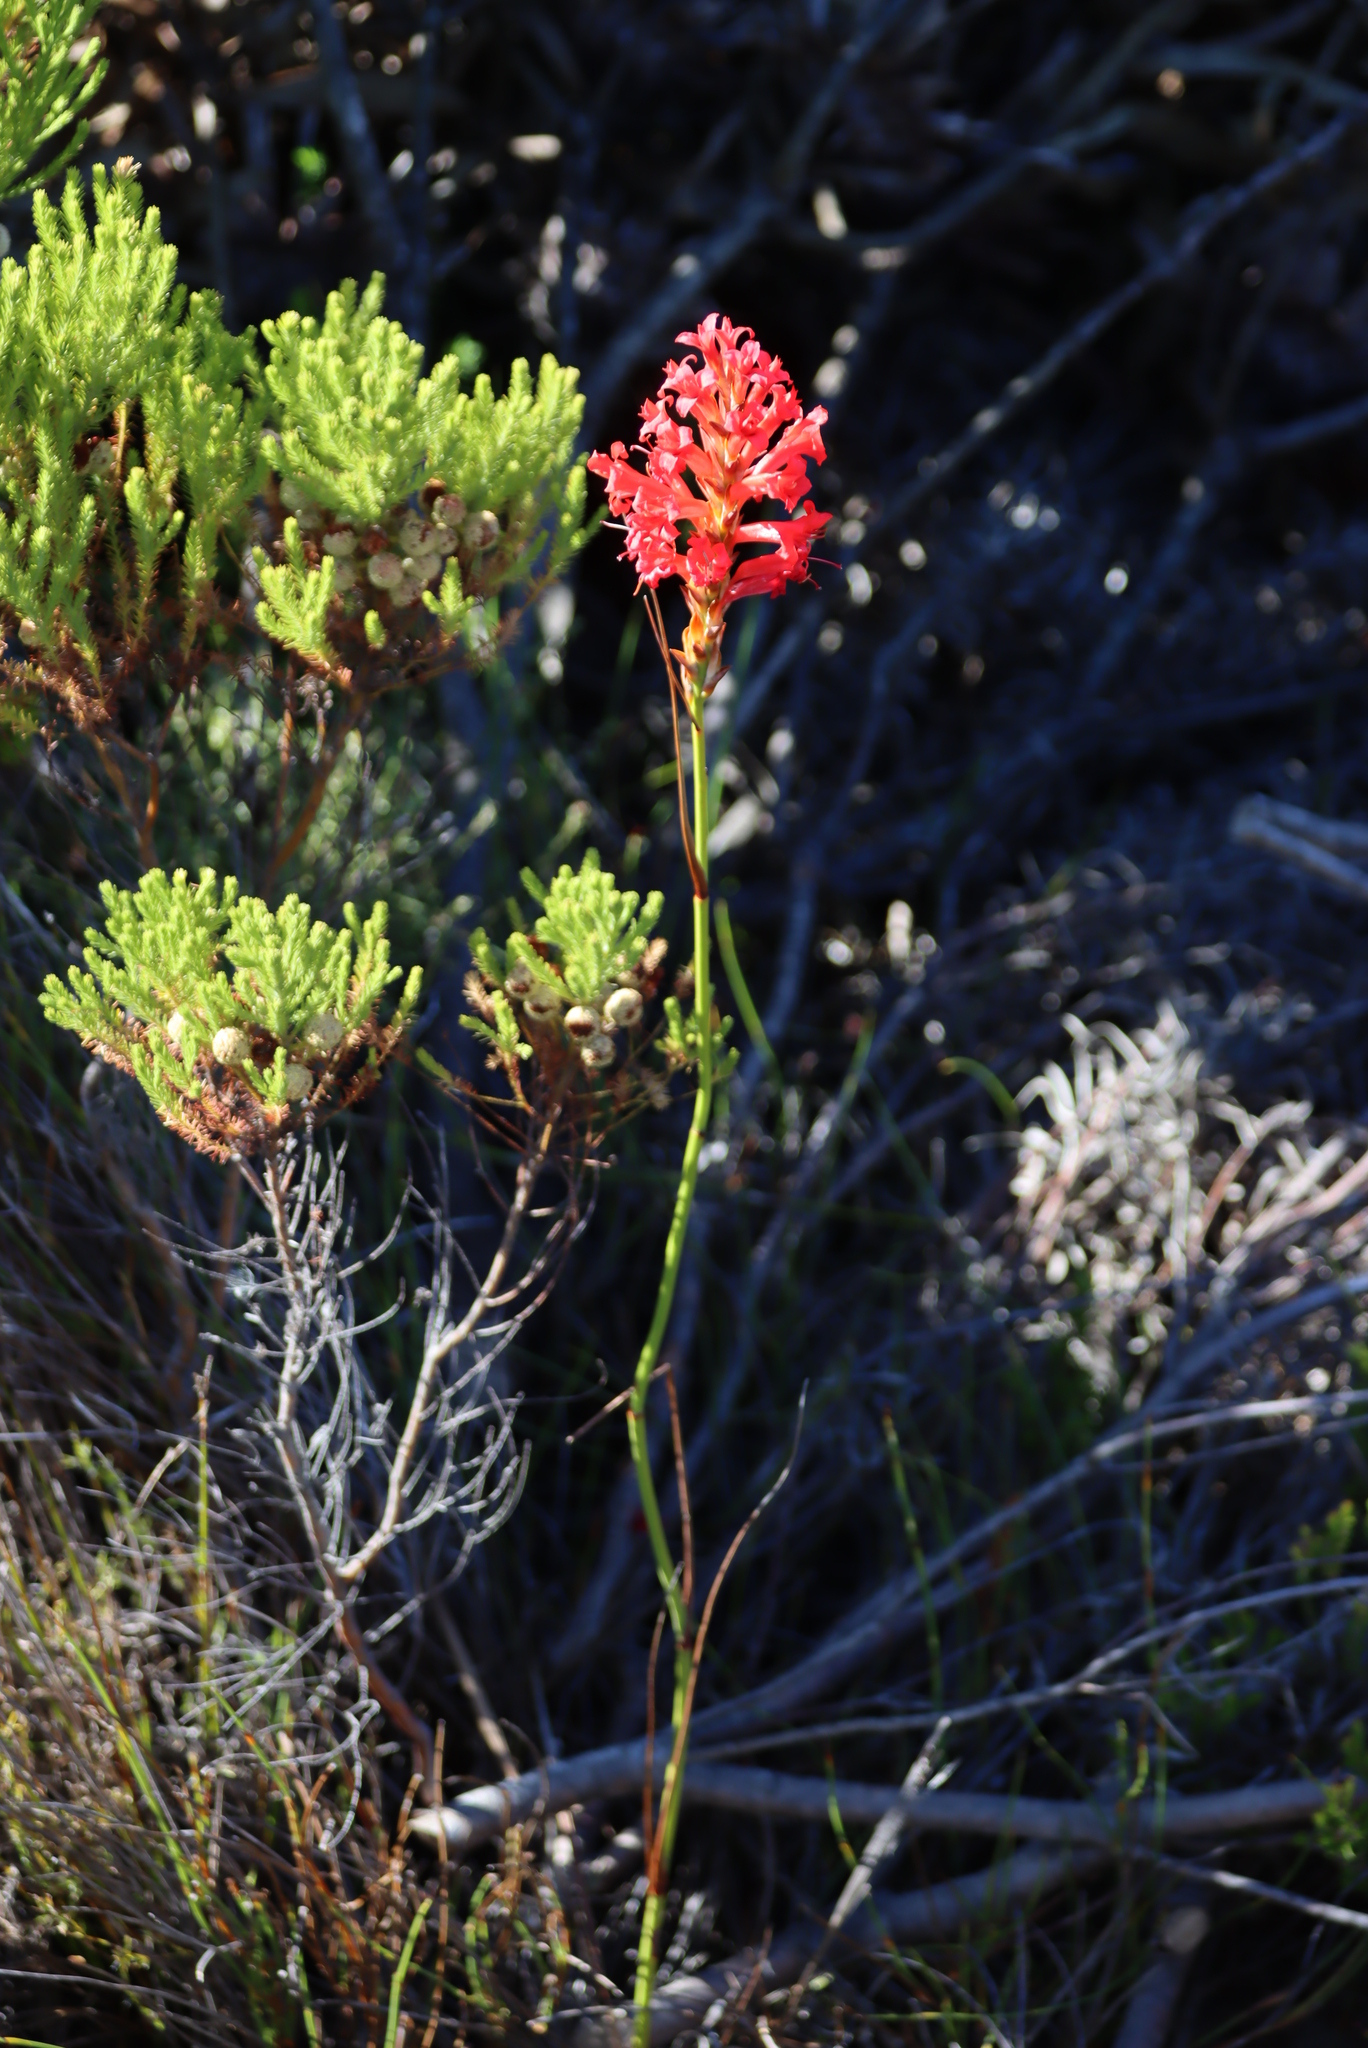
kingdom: Plantae
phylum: Tracheophyta
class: Liliopsida
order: Asparagales
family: Iridaceae
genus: Tritoniopsis
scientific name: Tritoniopsis triticea
